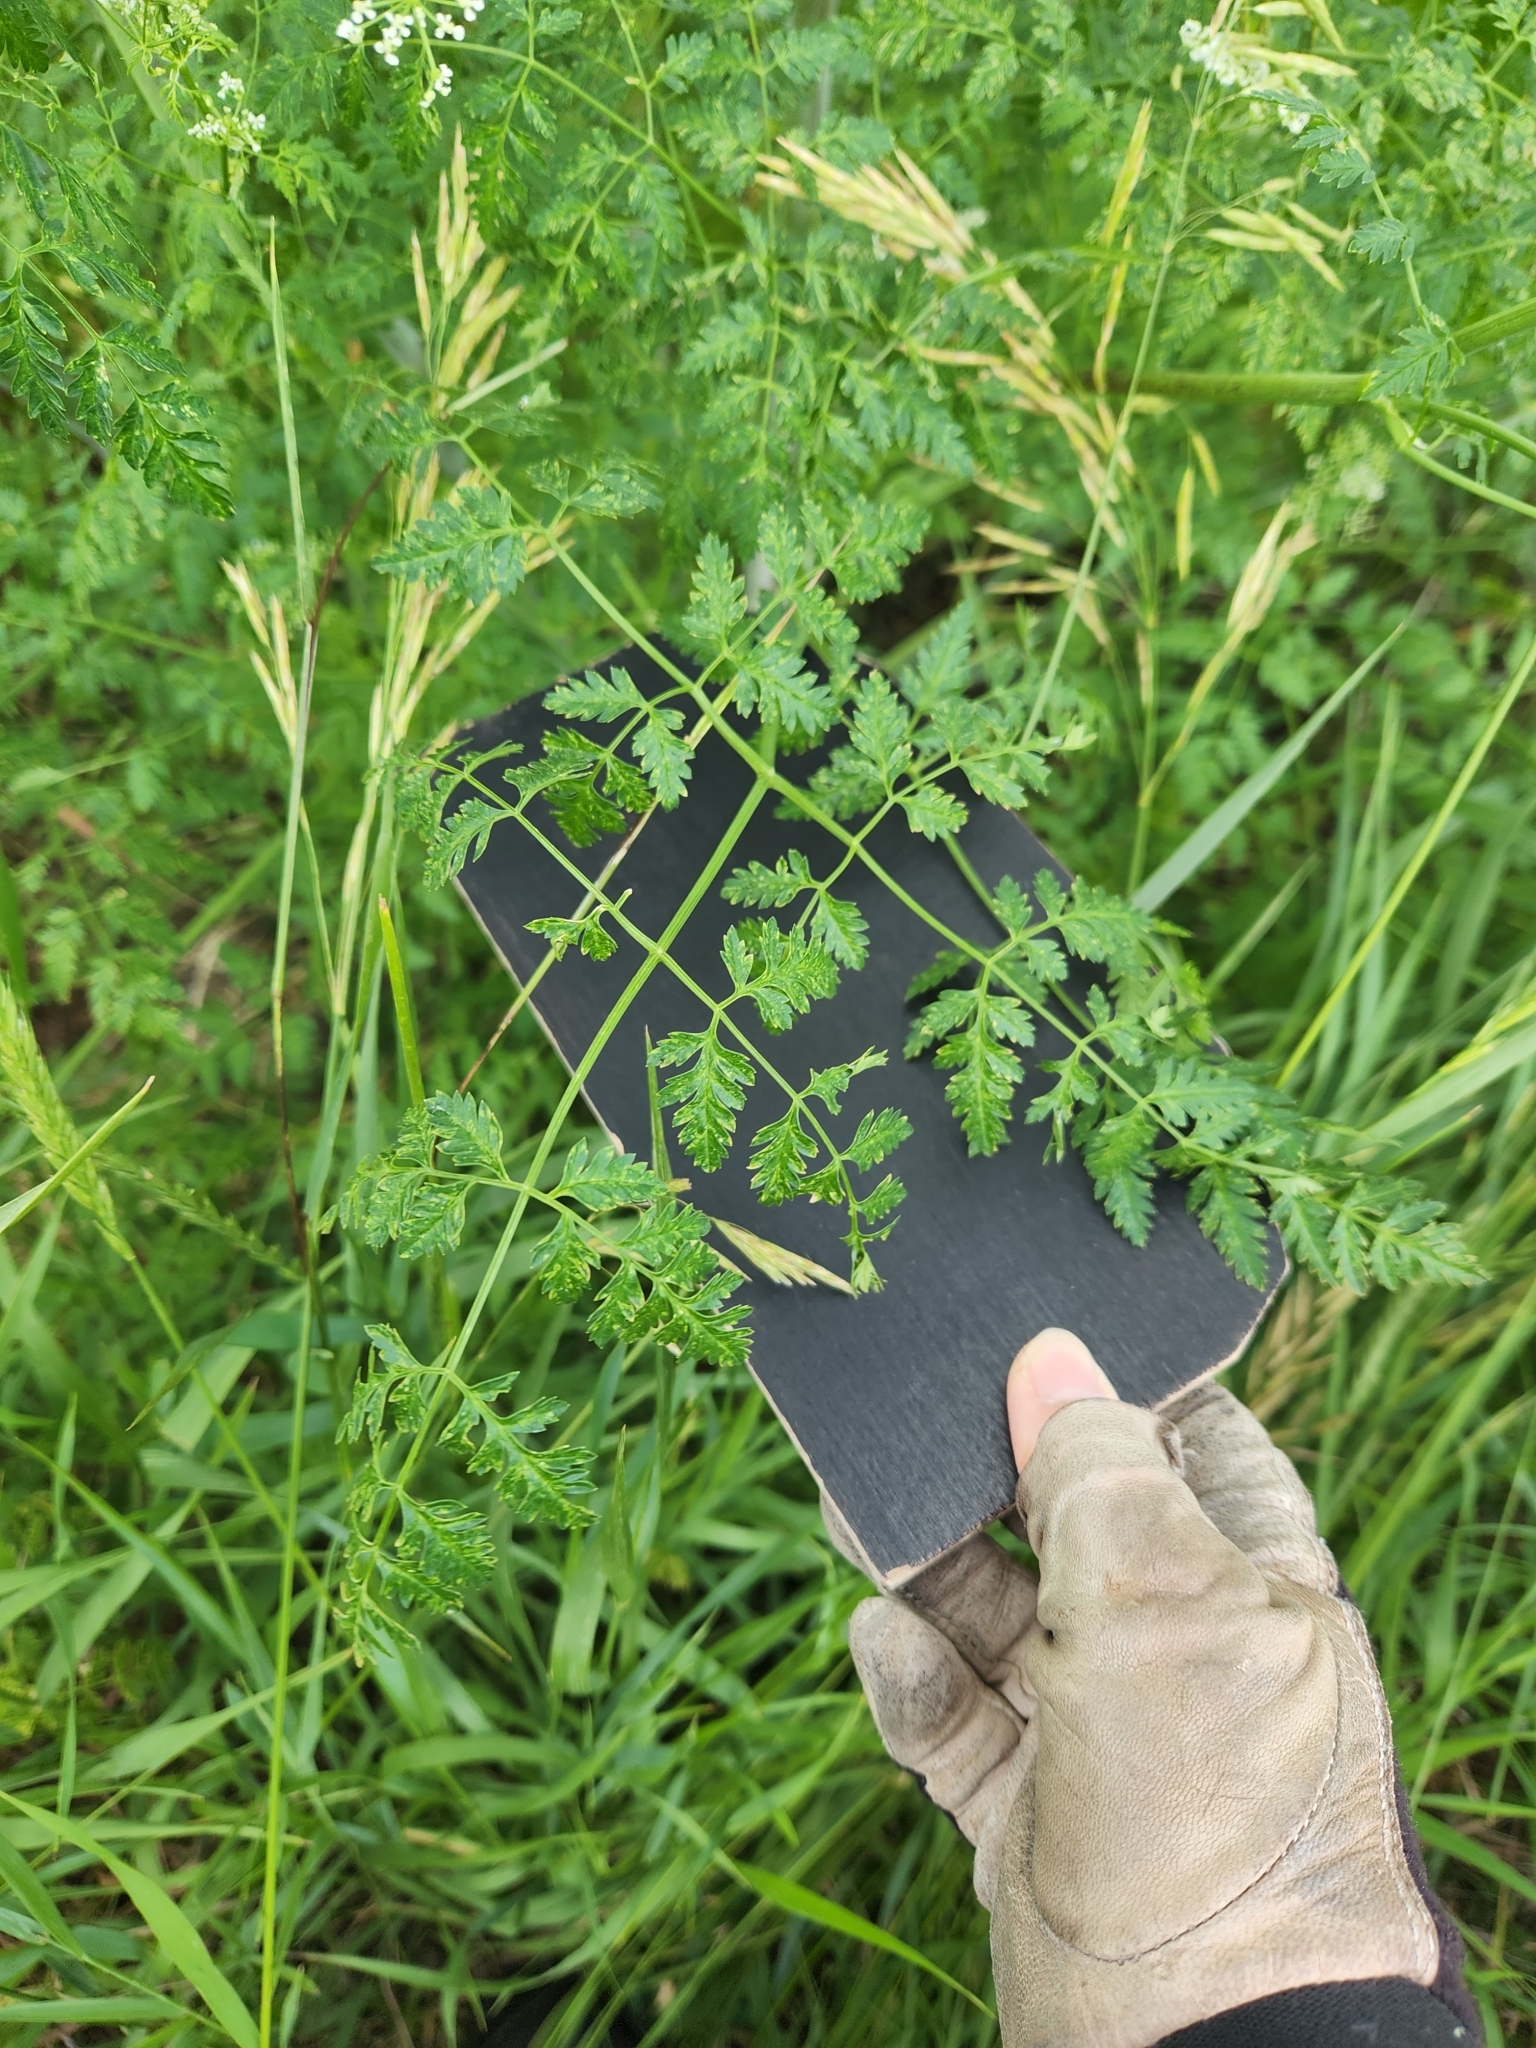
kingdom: Plantae
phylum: Tracheophyta
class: Magnoliopsida
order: Apiales
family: Apiaceae
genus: Conium
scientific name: Conium maculatum
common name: Hemlock
